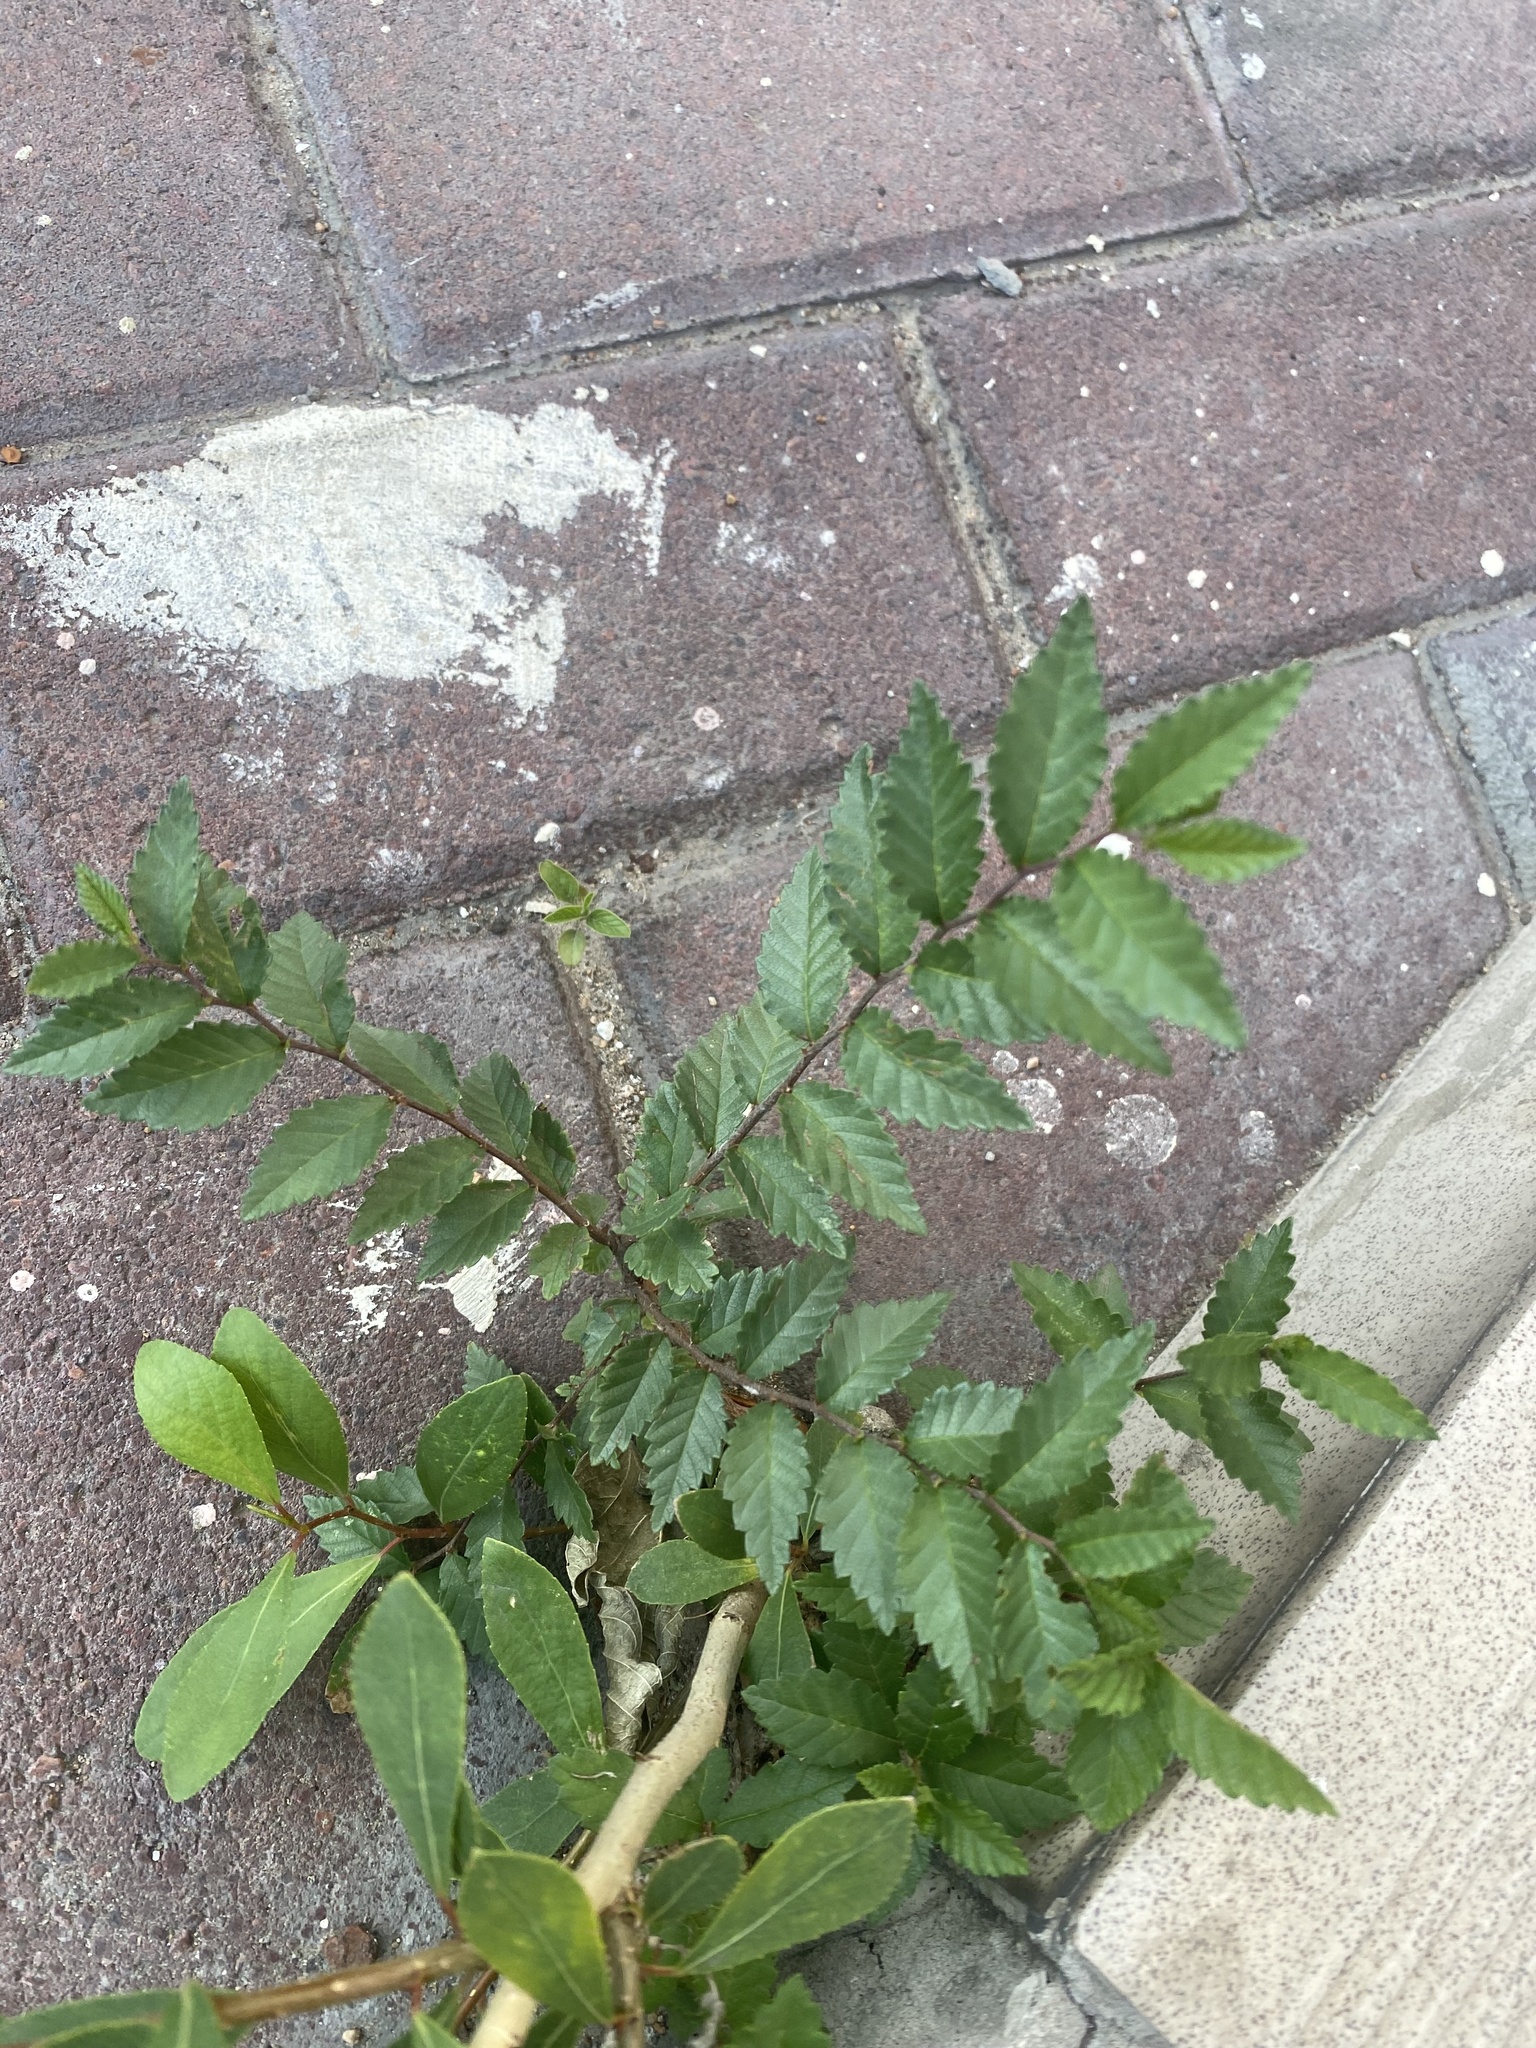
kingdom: Plantae
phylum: Tracheophyta
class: Magnoliopsida
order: Rosales
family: Ulmaceae
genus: Ulmus
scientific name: Ulmus pumila
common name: Siberian elm
